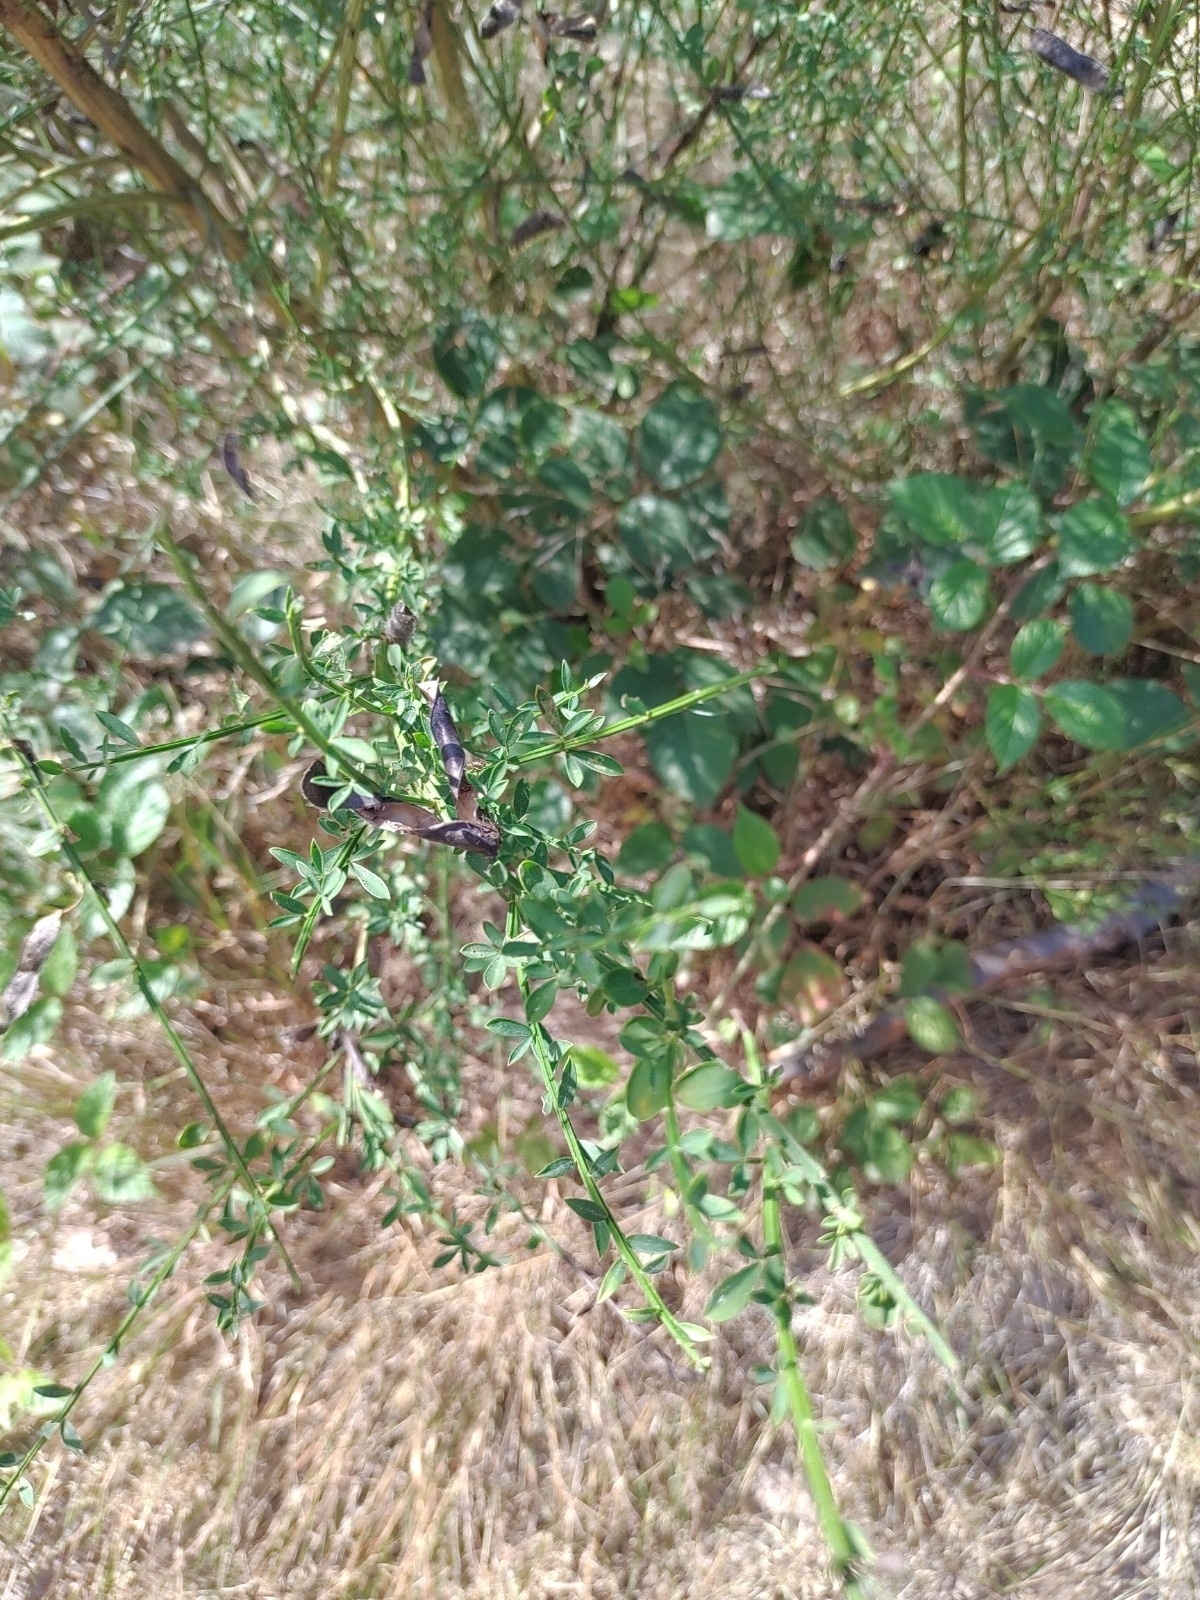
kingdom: Plantae
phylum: Tracheophyta
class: Magnoliopsida
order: Fabales
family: Fabaceae
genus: Cytisus
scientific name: Cytisus scoparius
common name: Scotch broom
